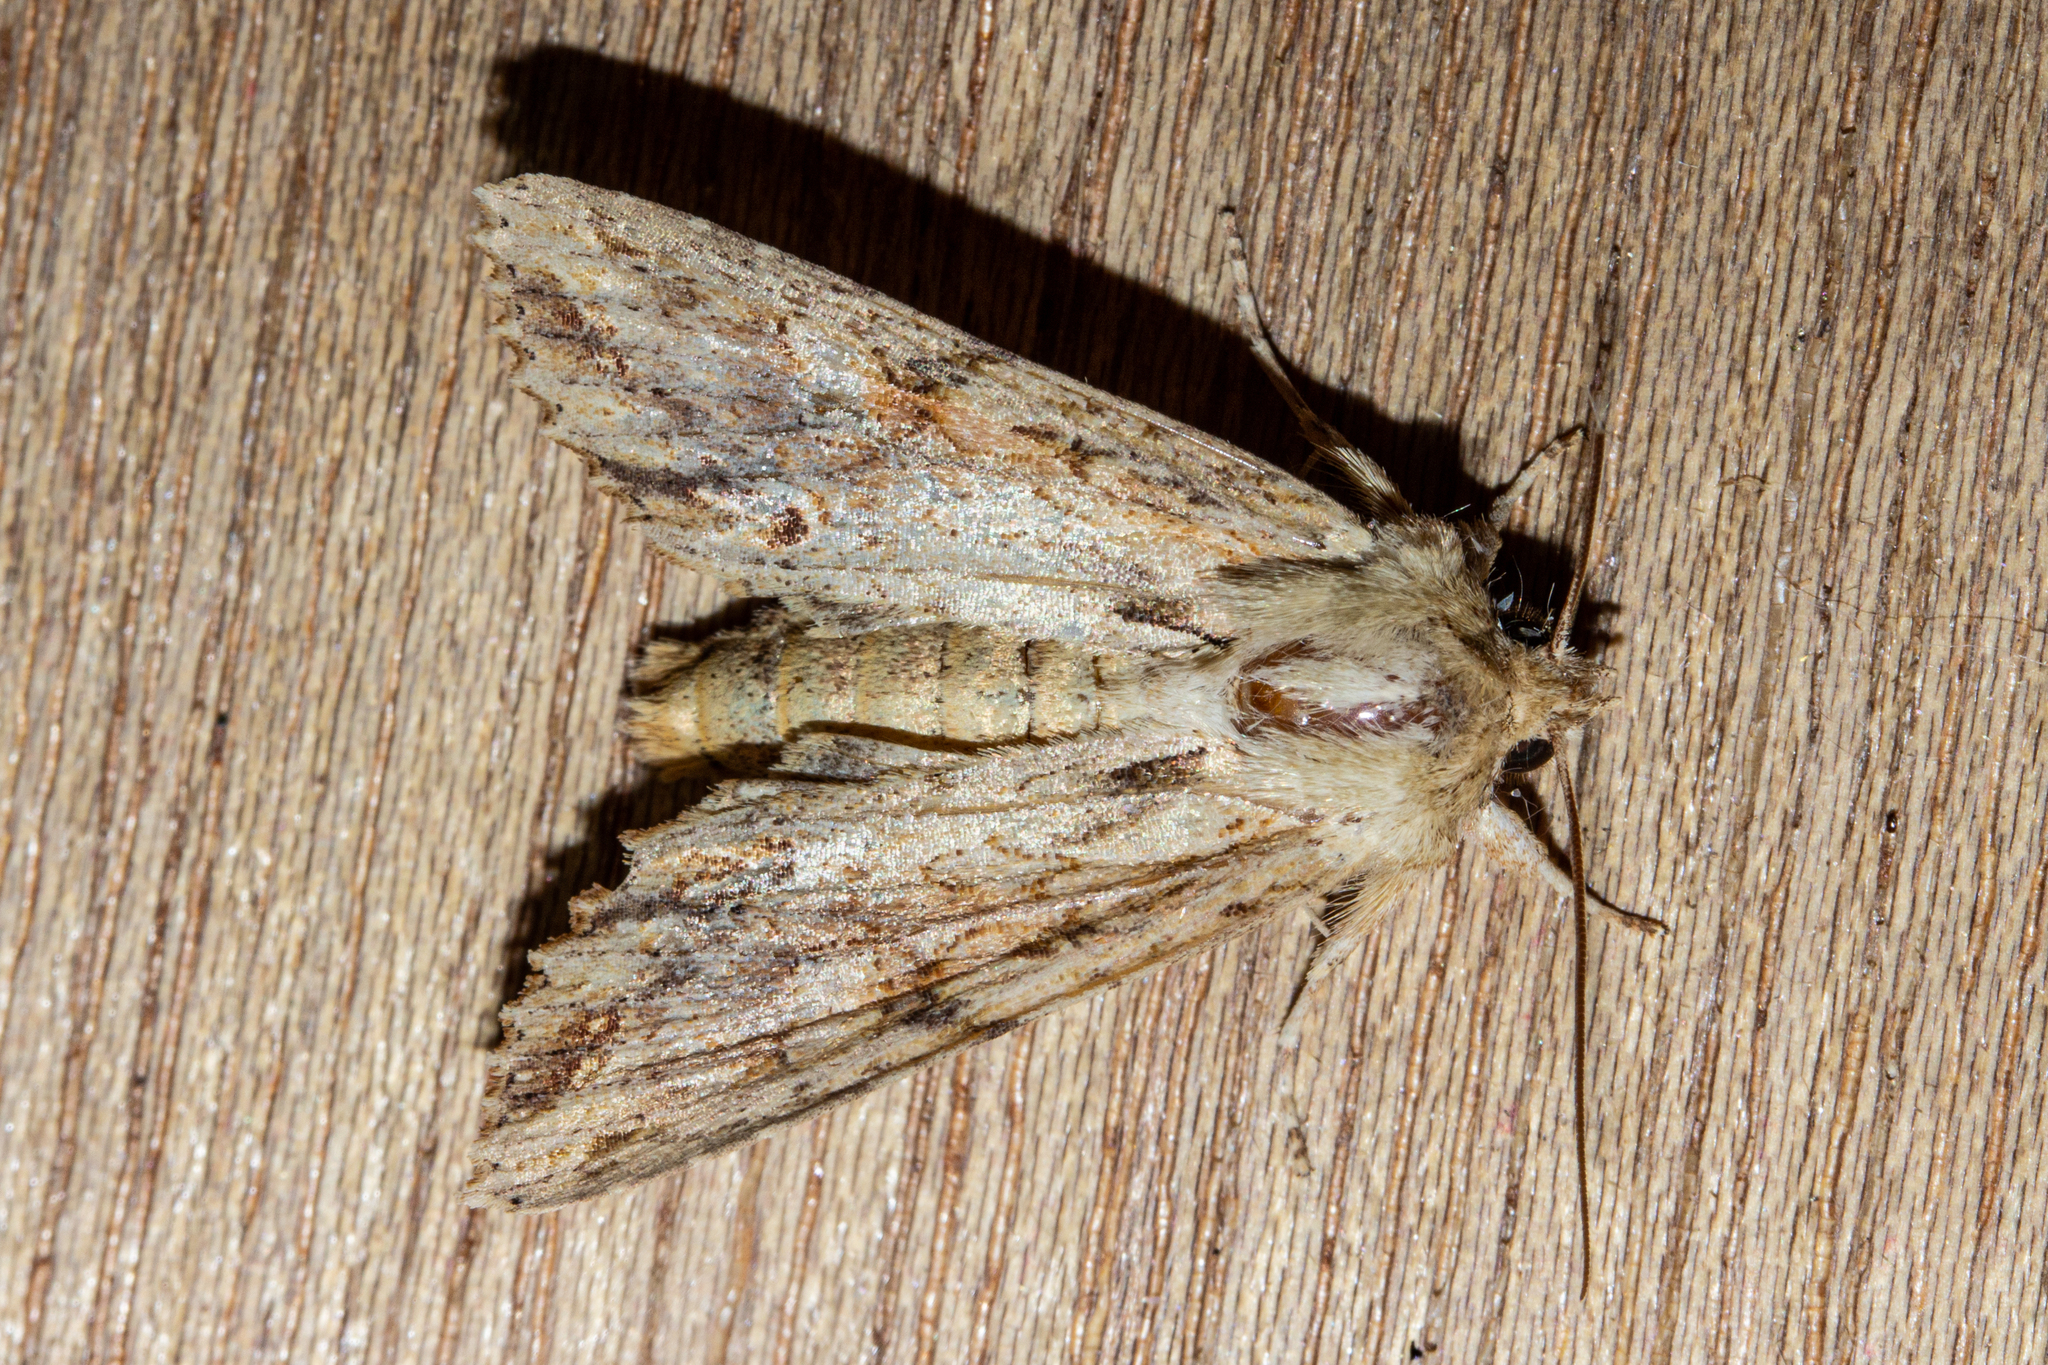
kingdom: Animalia
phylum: Arthropoda
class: Insecta
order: Lepidoptera
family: Noctuidae
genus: Ichneutica
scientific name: Ichneutica mollis
